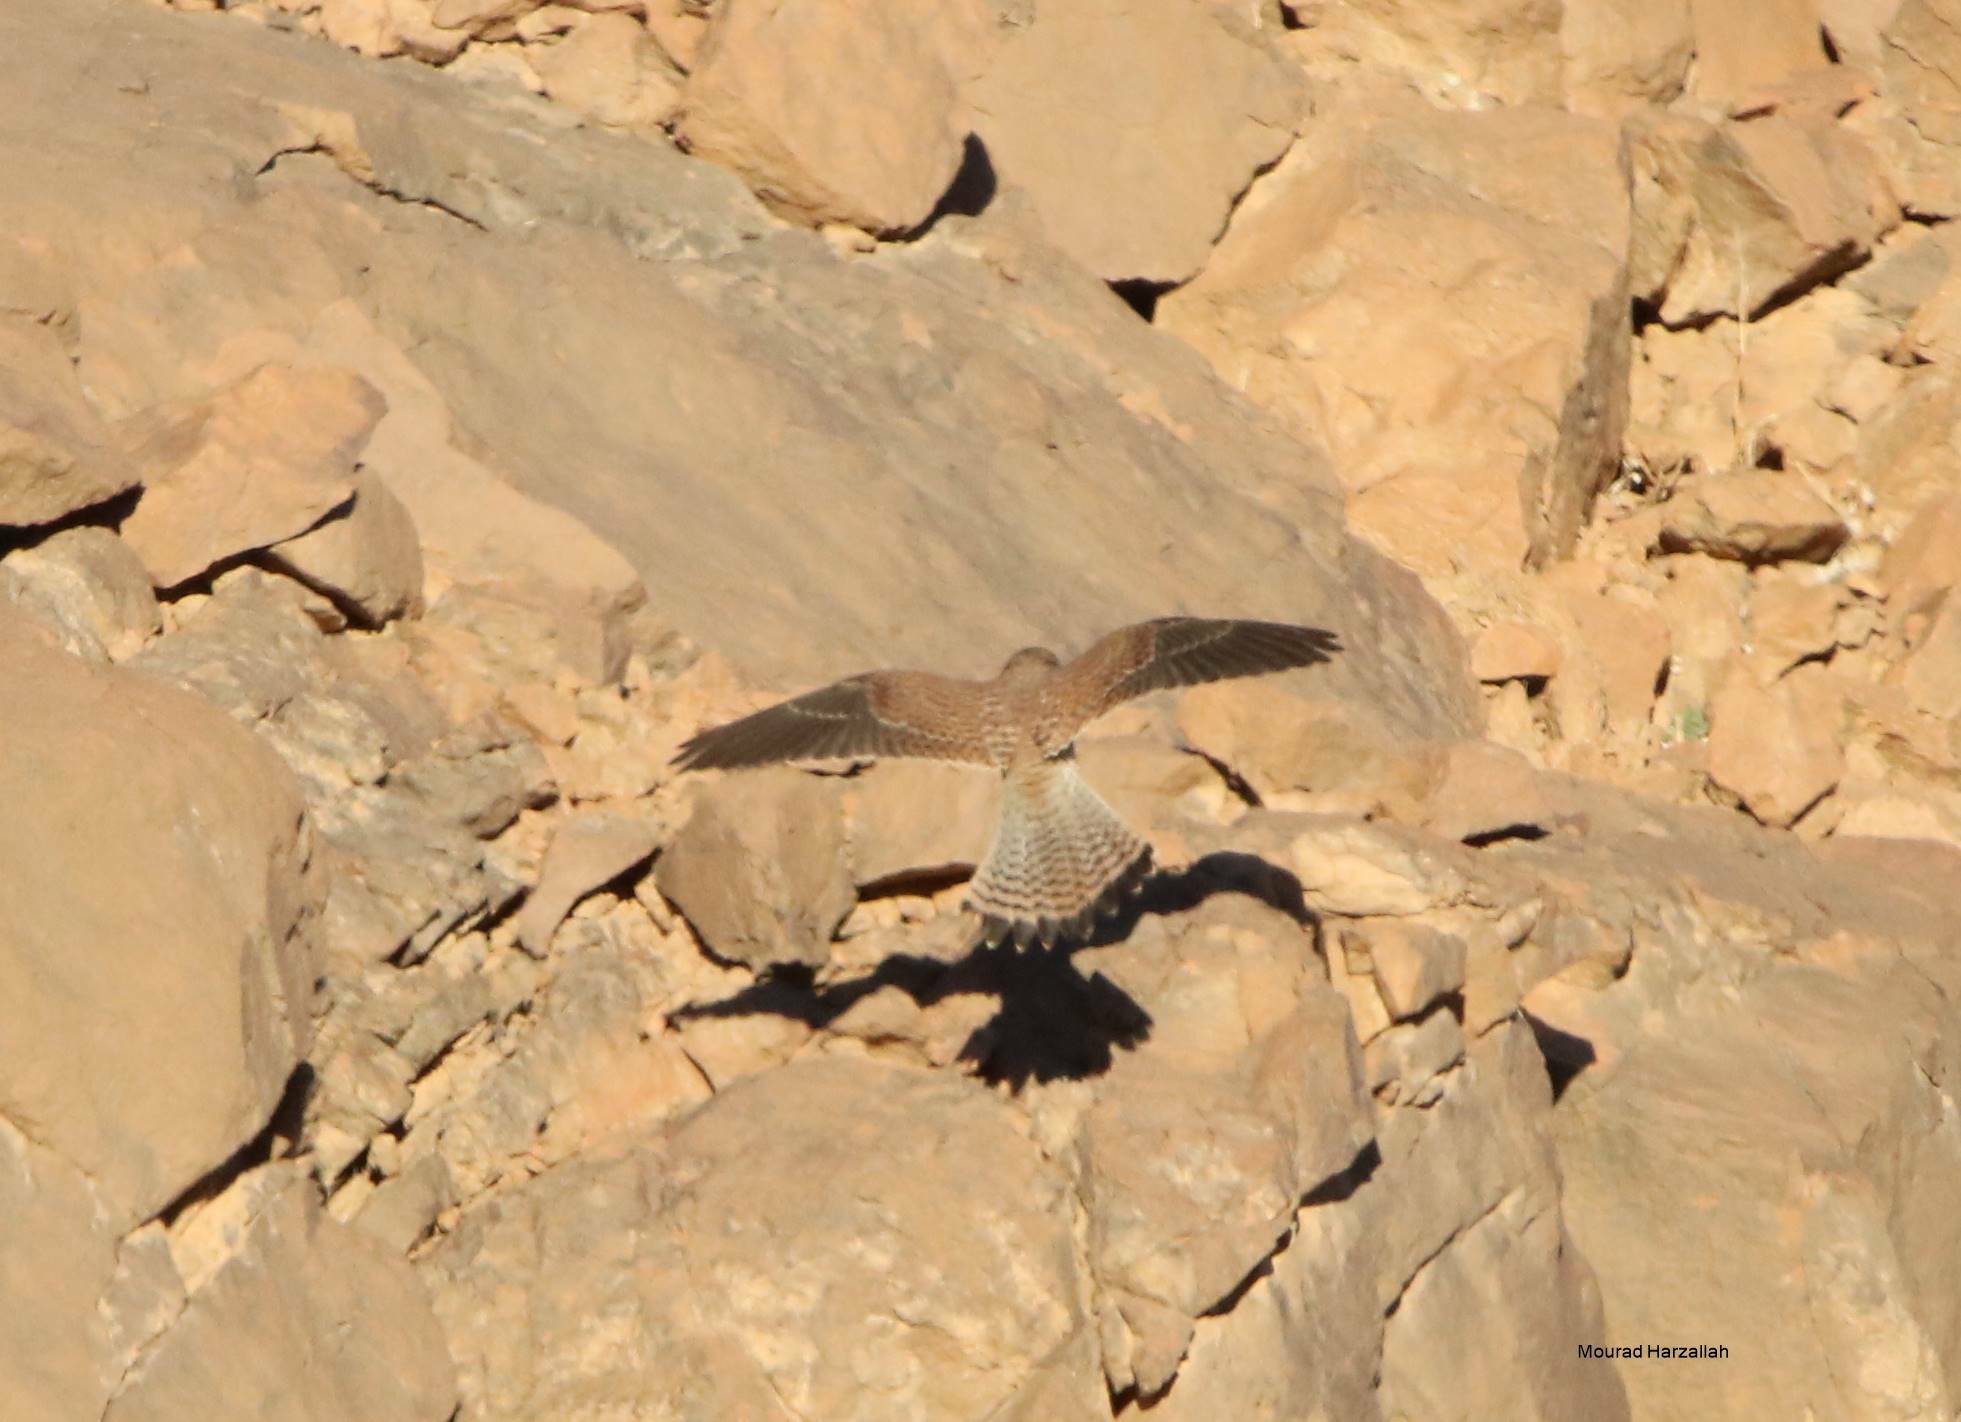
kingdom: Animalia
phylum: Chordata
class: Aves
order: Falconiformes
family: Falconidae
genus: Falco
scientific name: Falco tinnunculus
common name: Common kestrel
